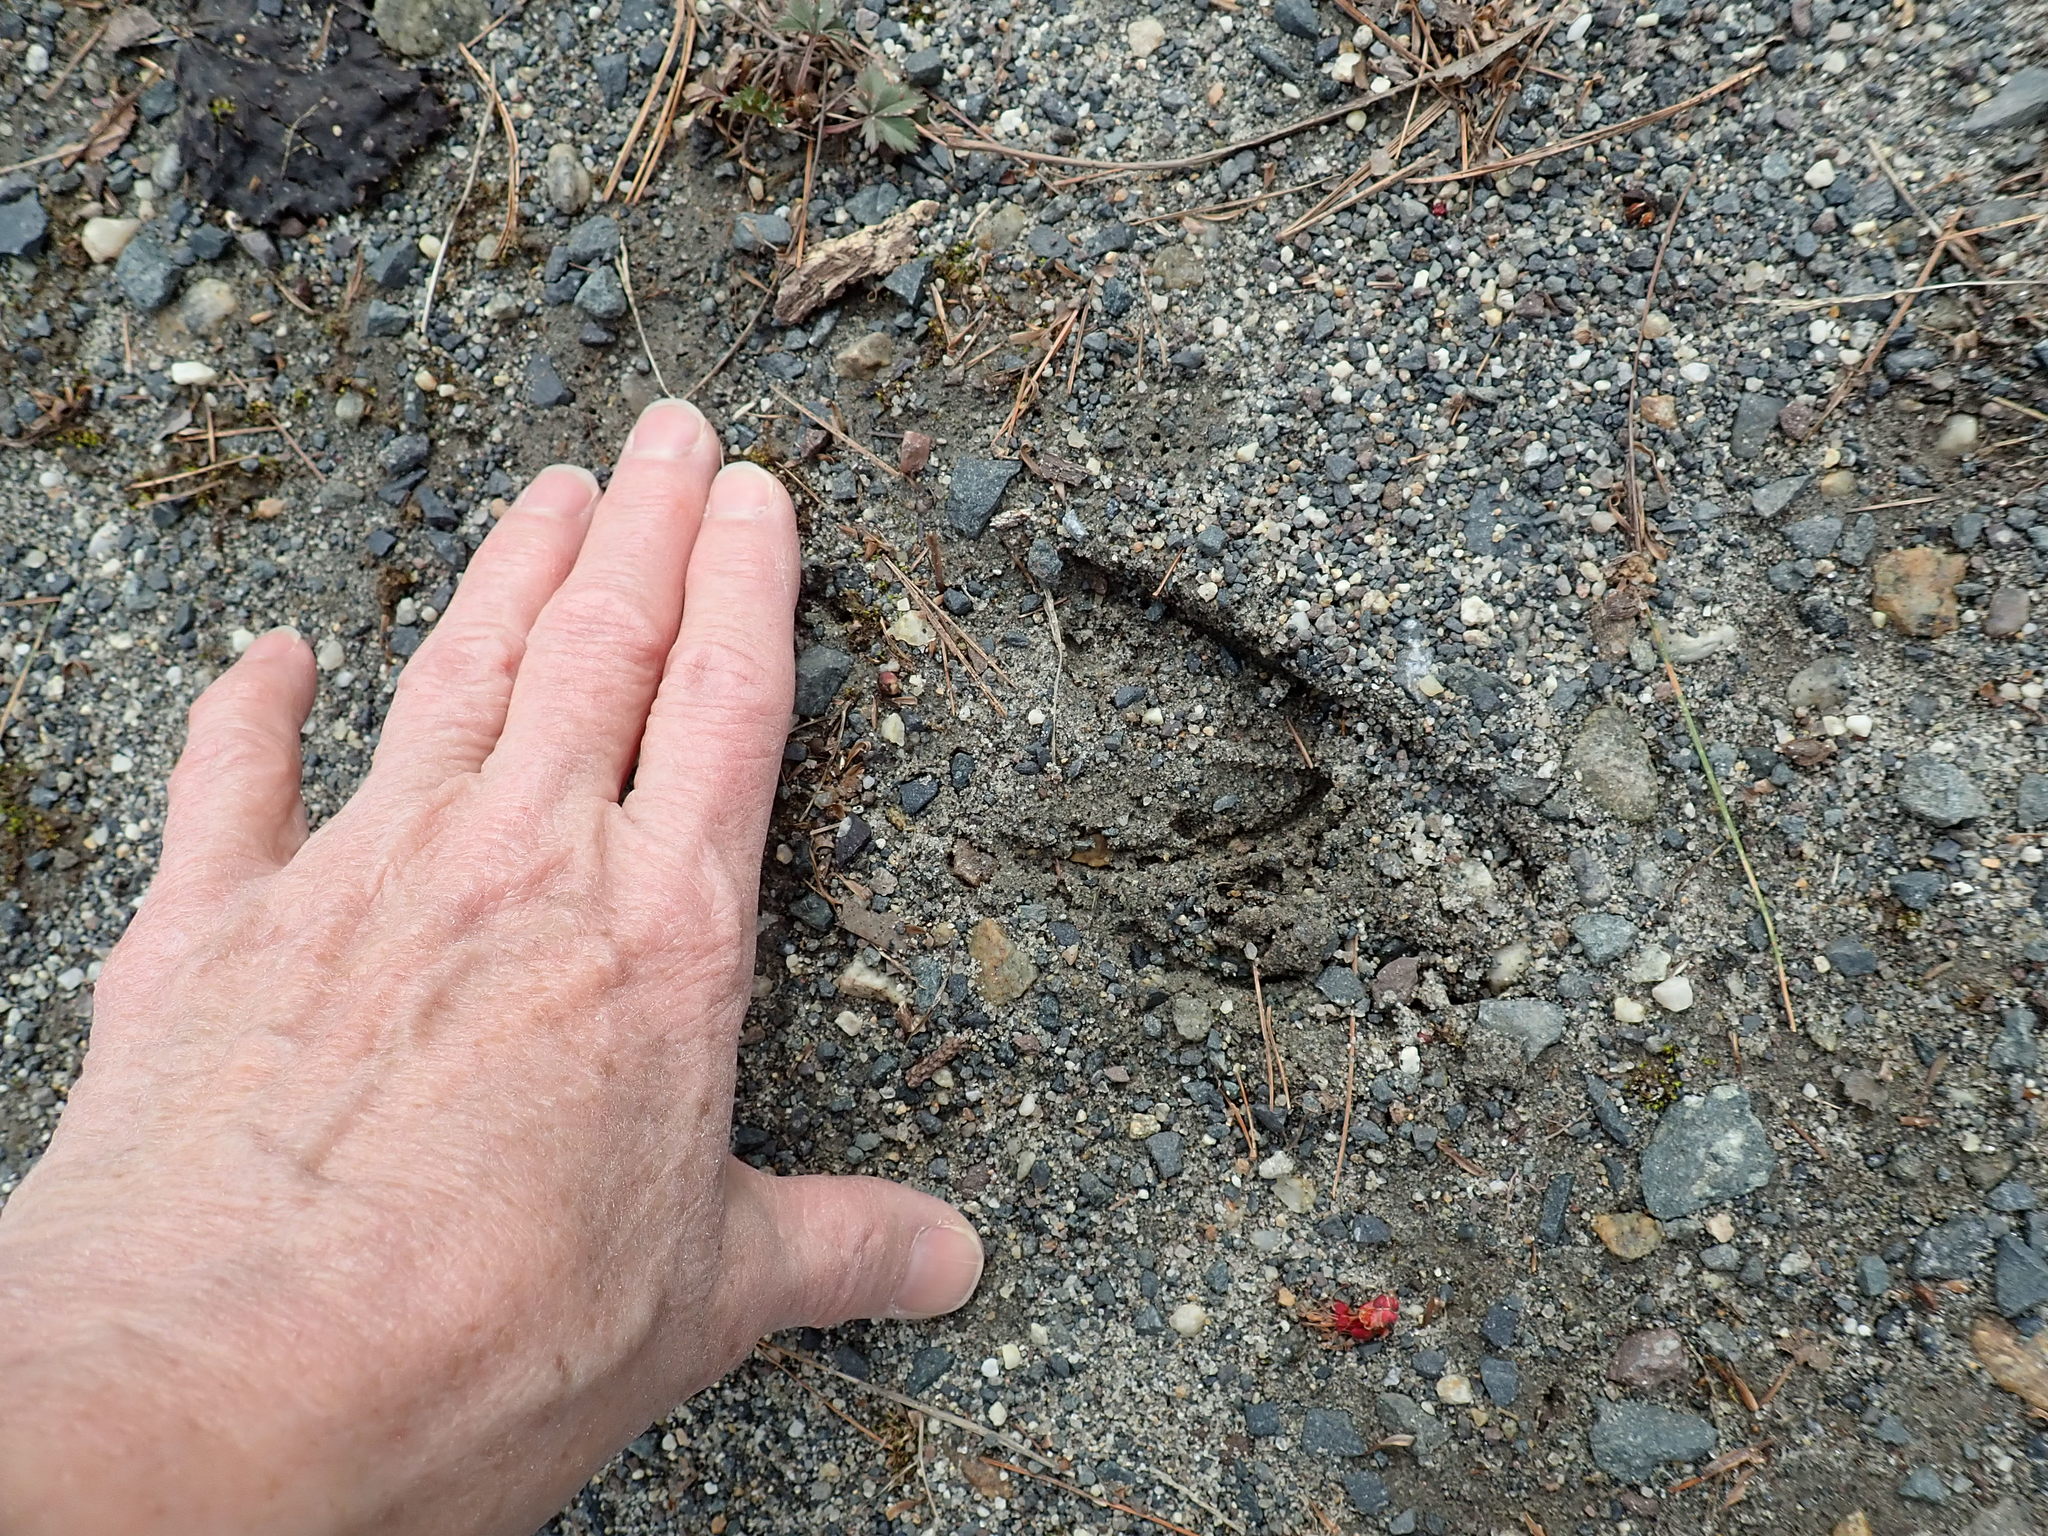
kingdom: Animalia
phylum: Chordata
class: Mammalia
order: Artiodactyla
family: Cervidae
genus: Odocoileus
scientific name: Odocoileus virginianus
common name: White-tailed deer
